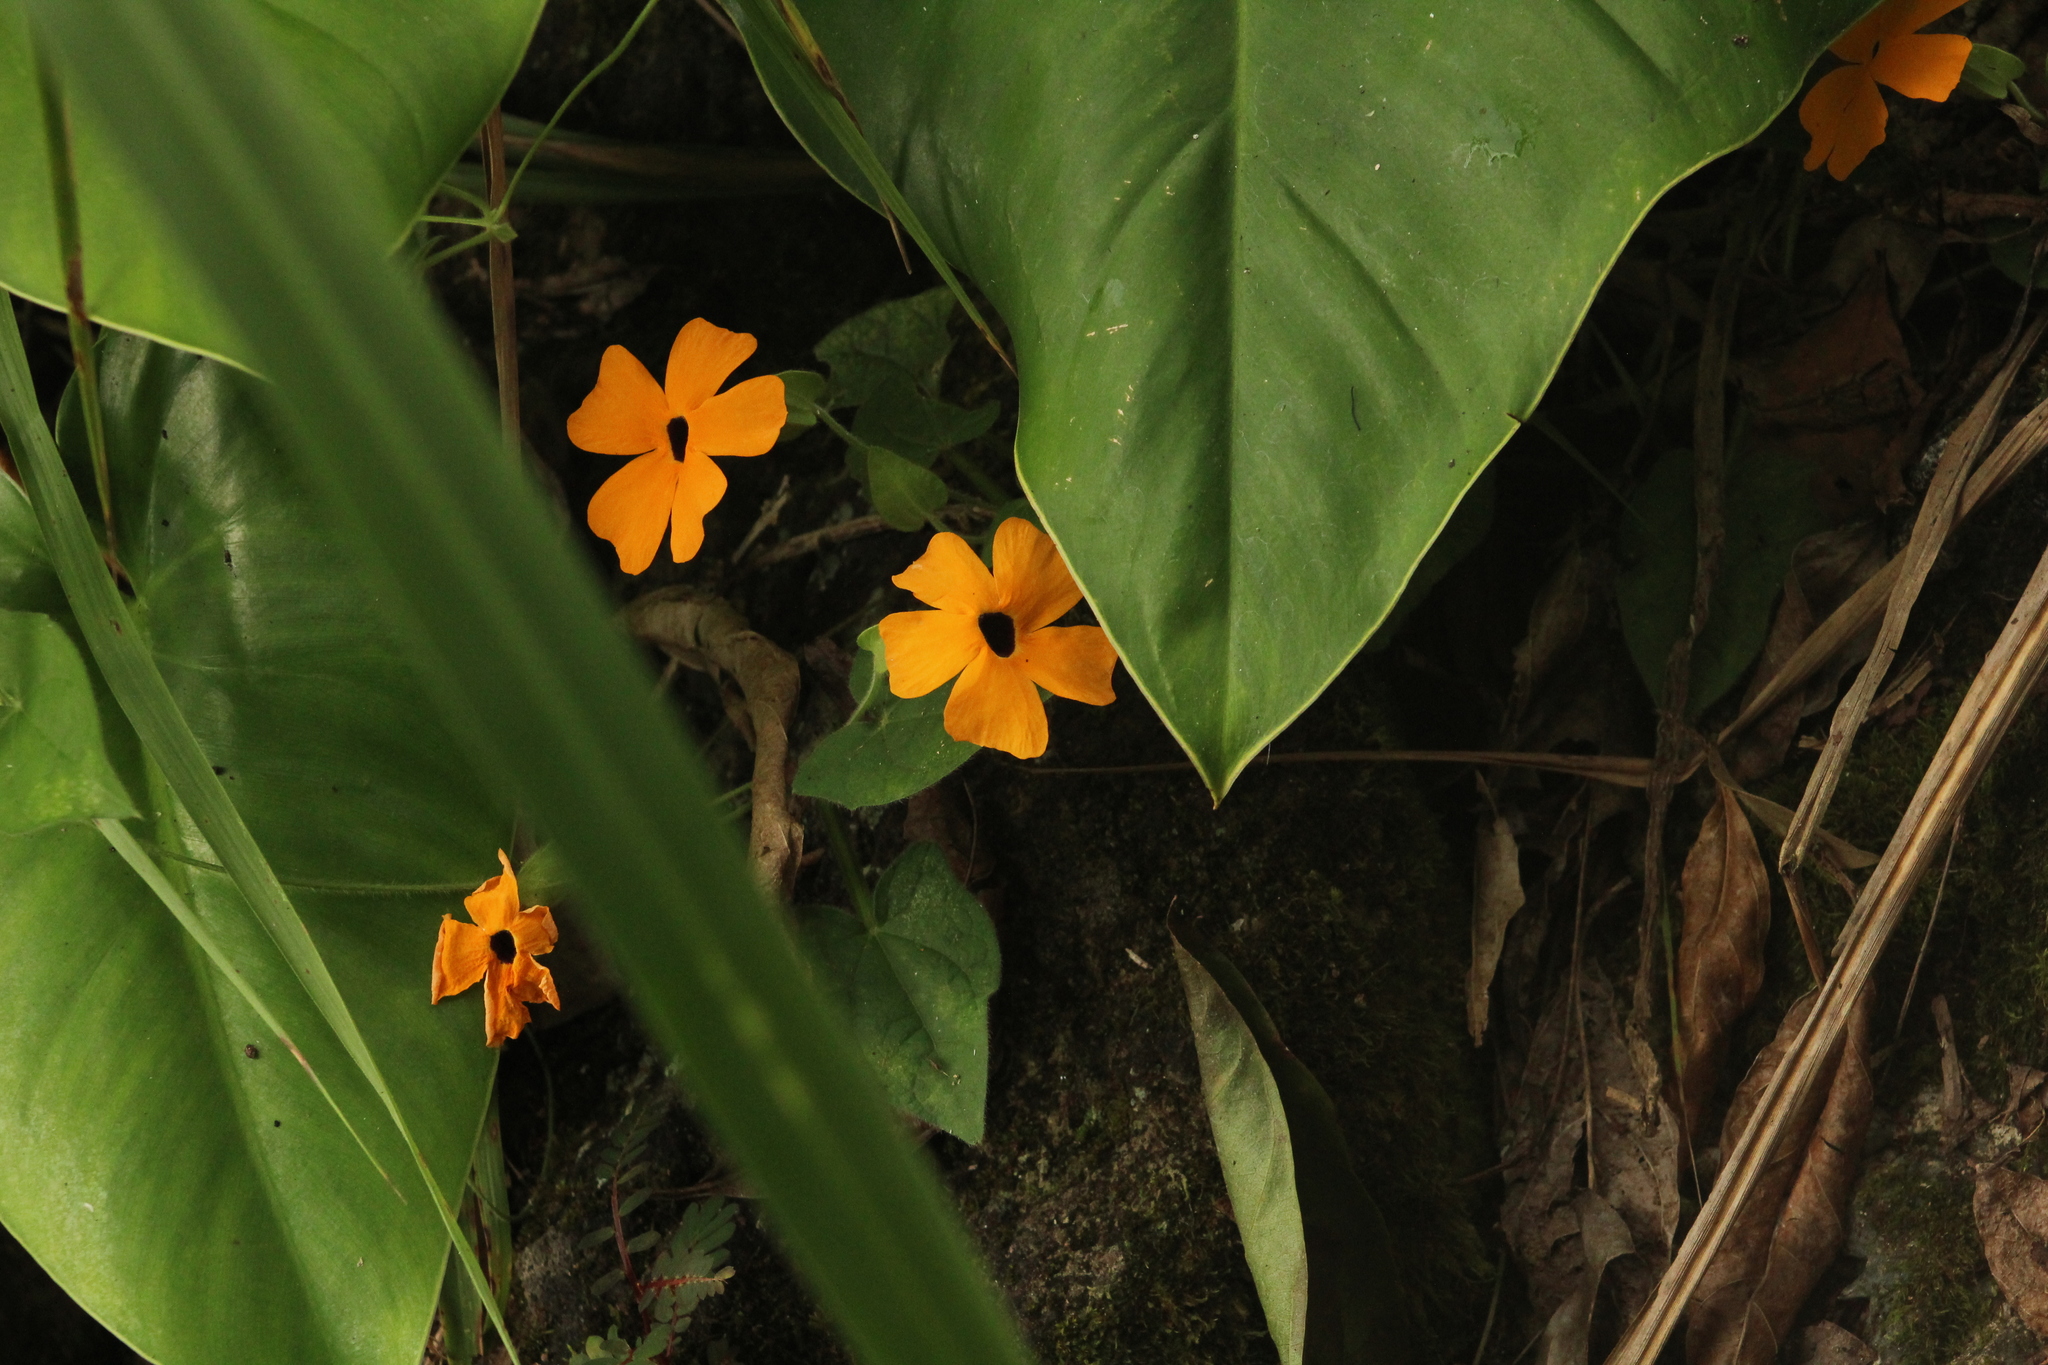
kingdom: Plantae
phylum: Tracheophyta
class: Magnoliopsida
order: Lamiales
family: Acanthaceae
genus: Thunbergia
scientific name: Thunbergia alata
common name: Blackeyed susan vine
